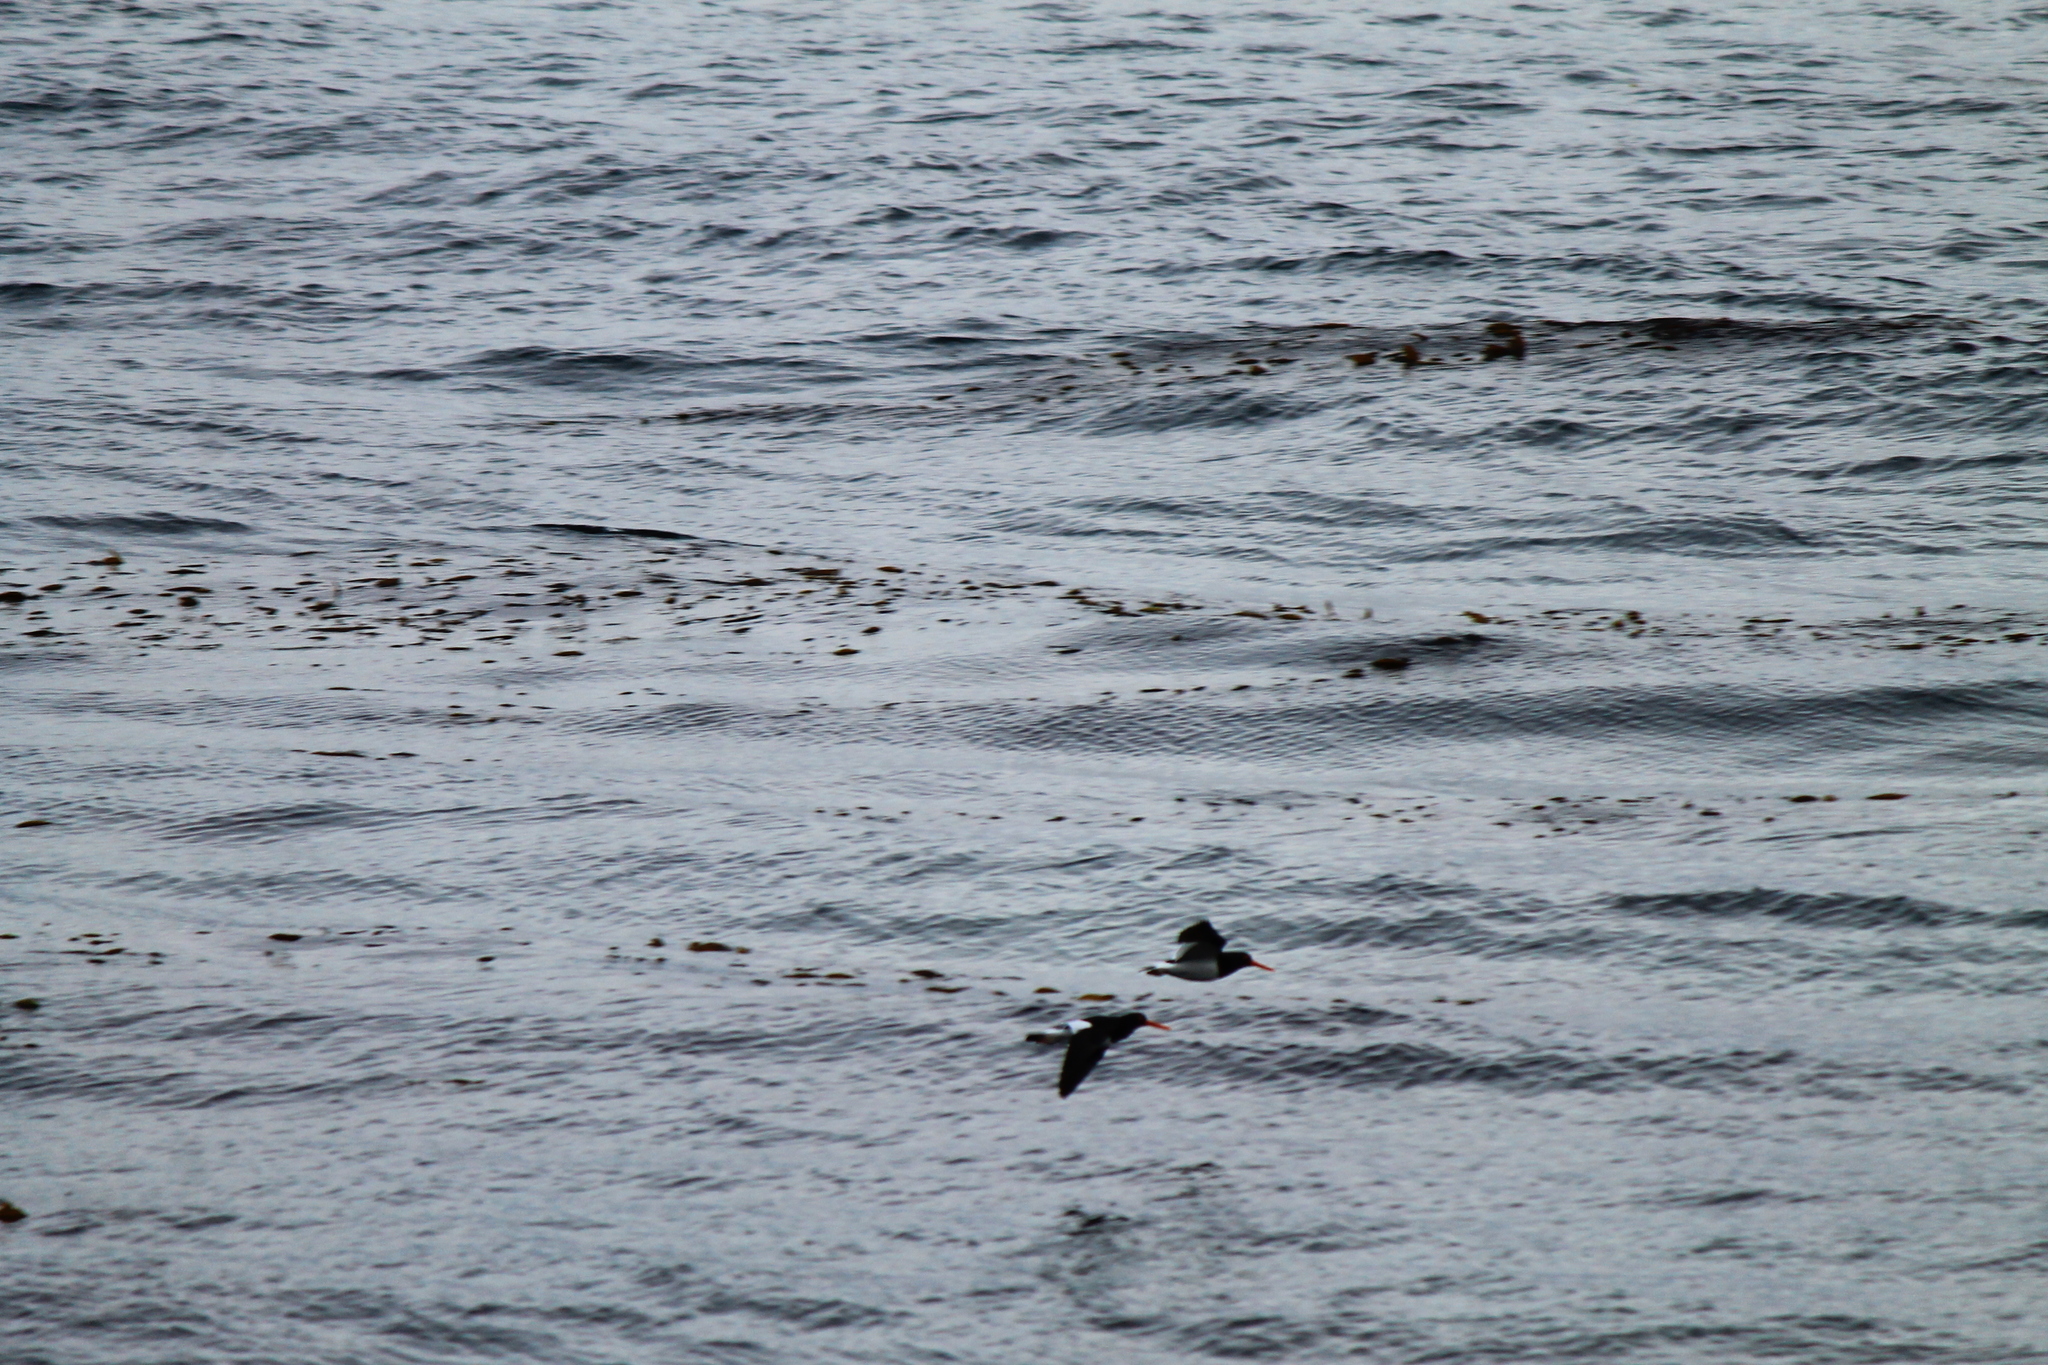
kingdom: Animalia
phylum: Chordata
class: Aves
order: Charadriiformes
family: Haematopodidae
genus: Haematopus
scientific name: Haematopus leucopodus
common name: Magellanic oystercatcher
